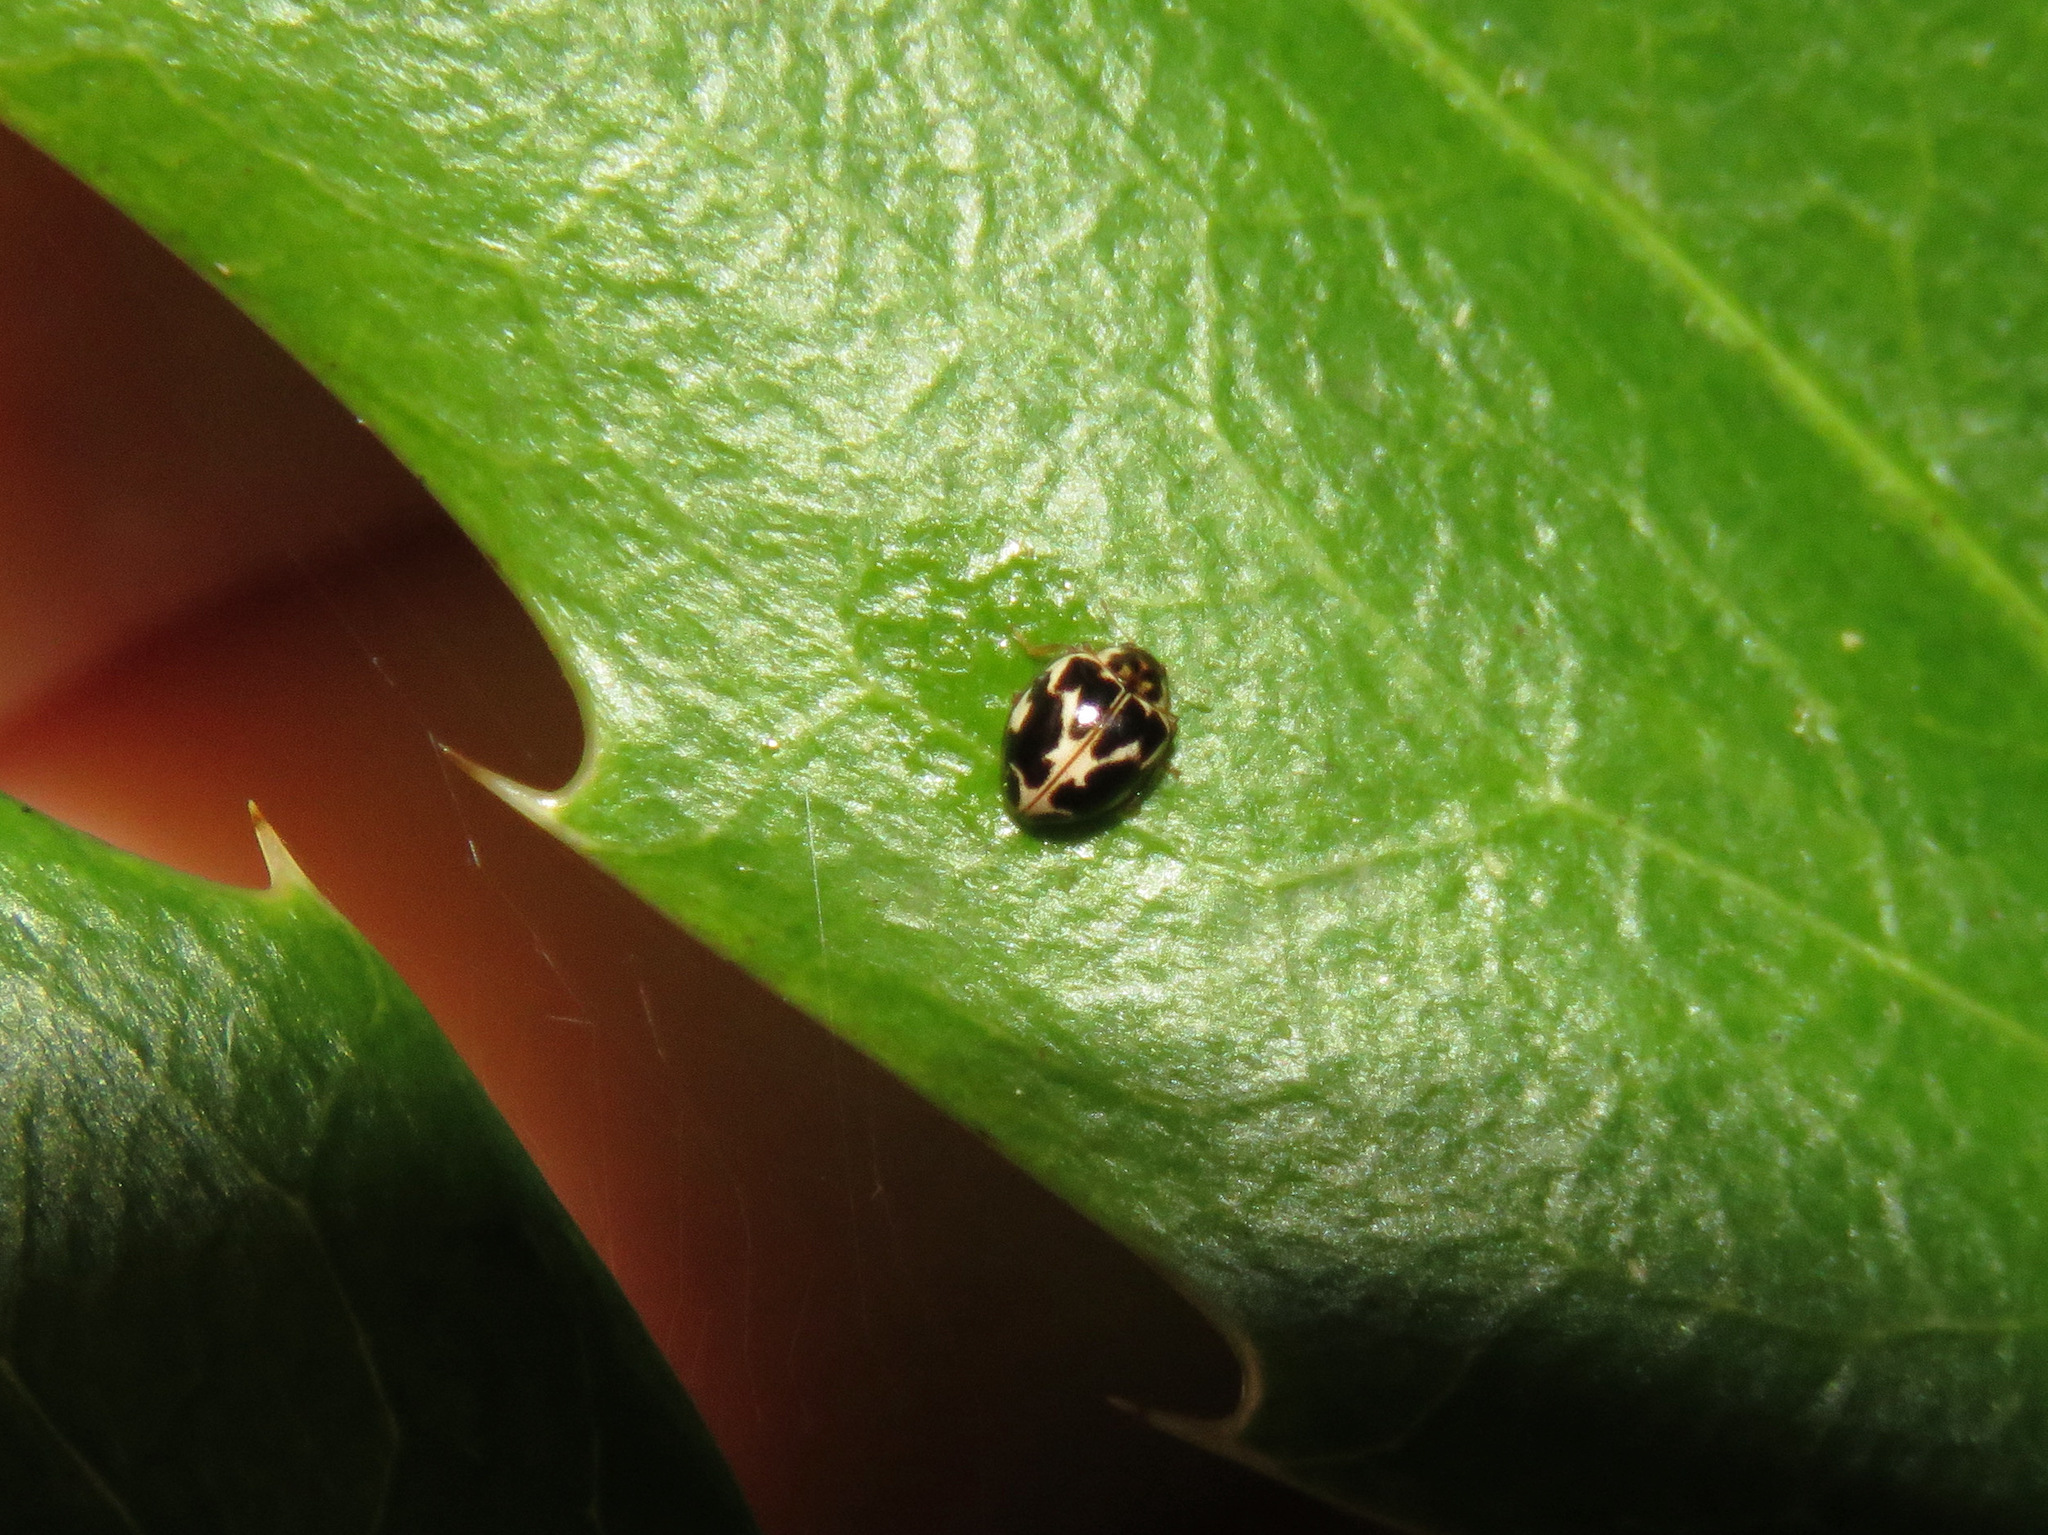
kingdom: Animalia
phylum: Arthropoda
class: Insecta
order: Coleoptera
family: Coccinellidae
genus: Psyllobora
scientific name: Psyllobora vigintimaculata
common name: Ladybird beetle
